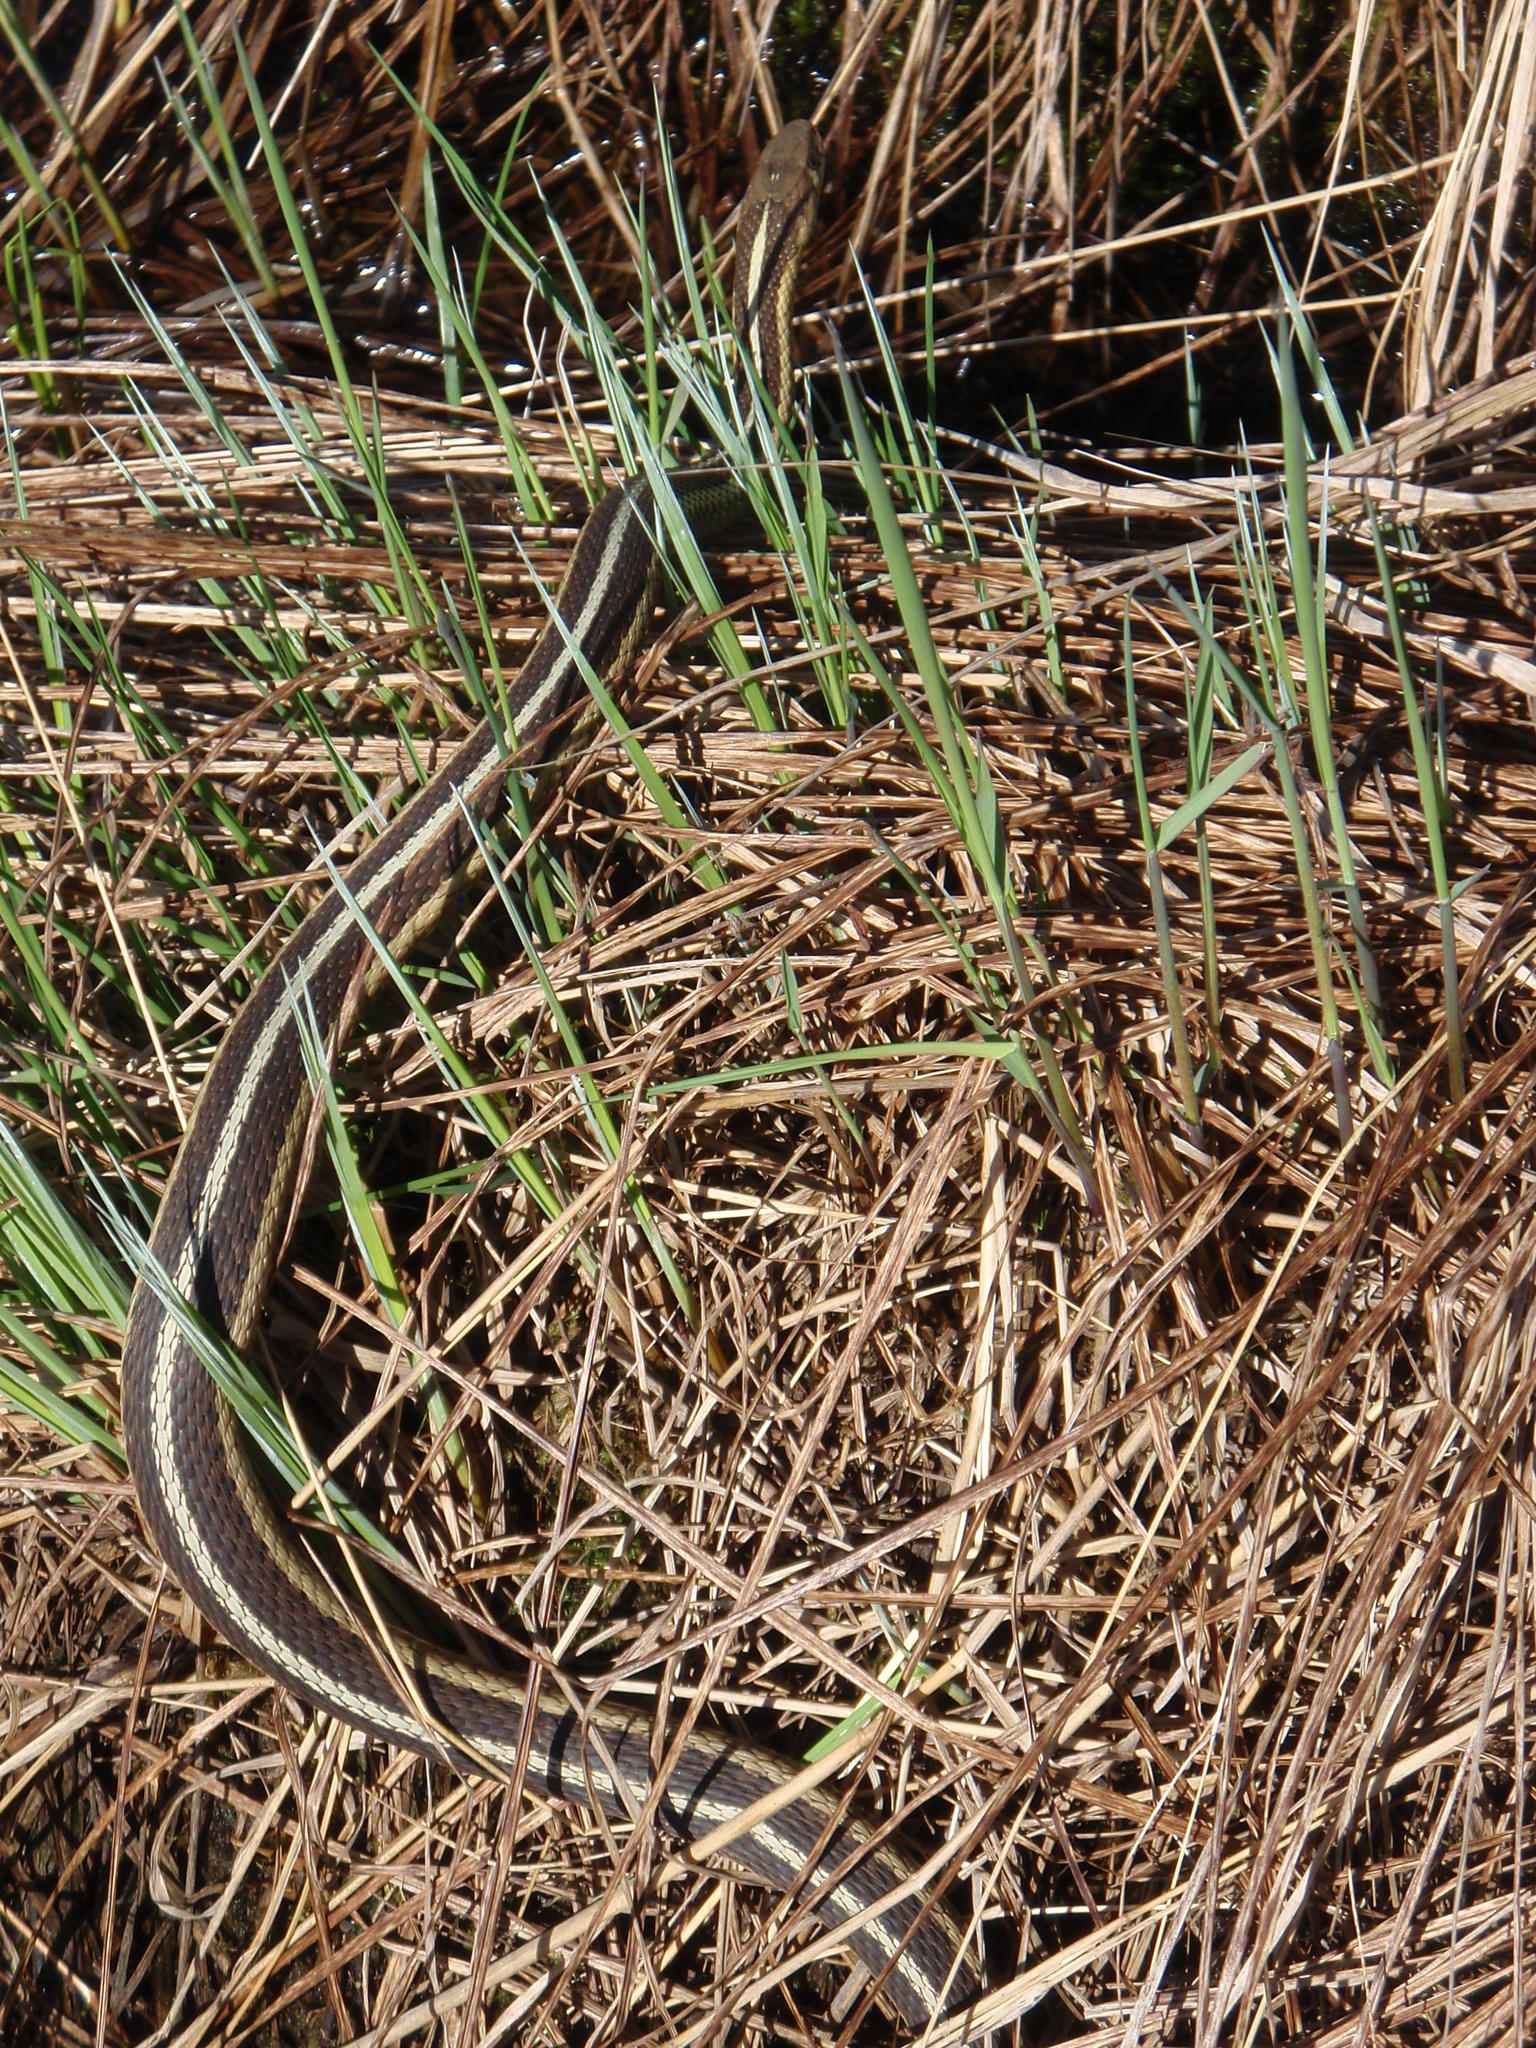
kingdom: Animalia
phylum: Chordata
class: Squamata
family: Colubridae
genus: Thamnophis
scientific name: Thamnophis sirtalis
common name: Common garter snake
